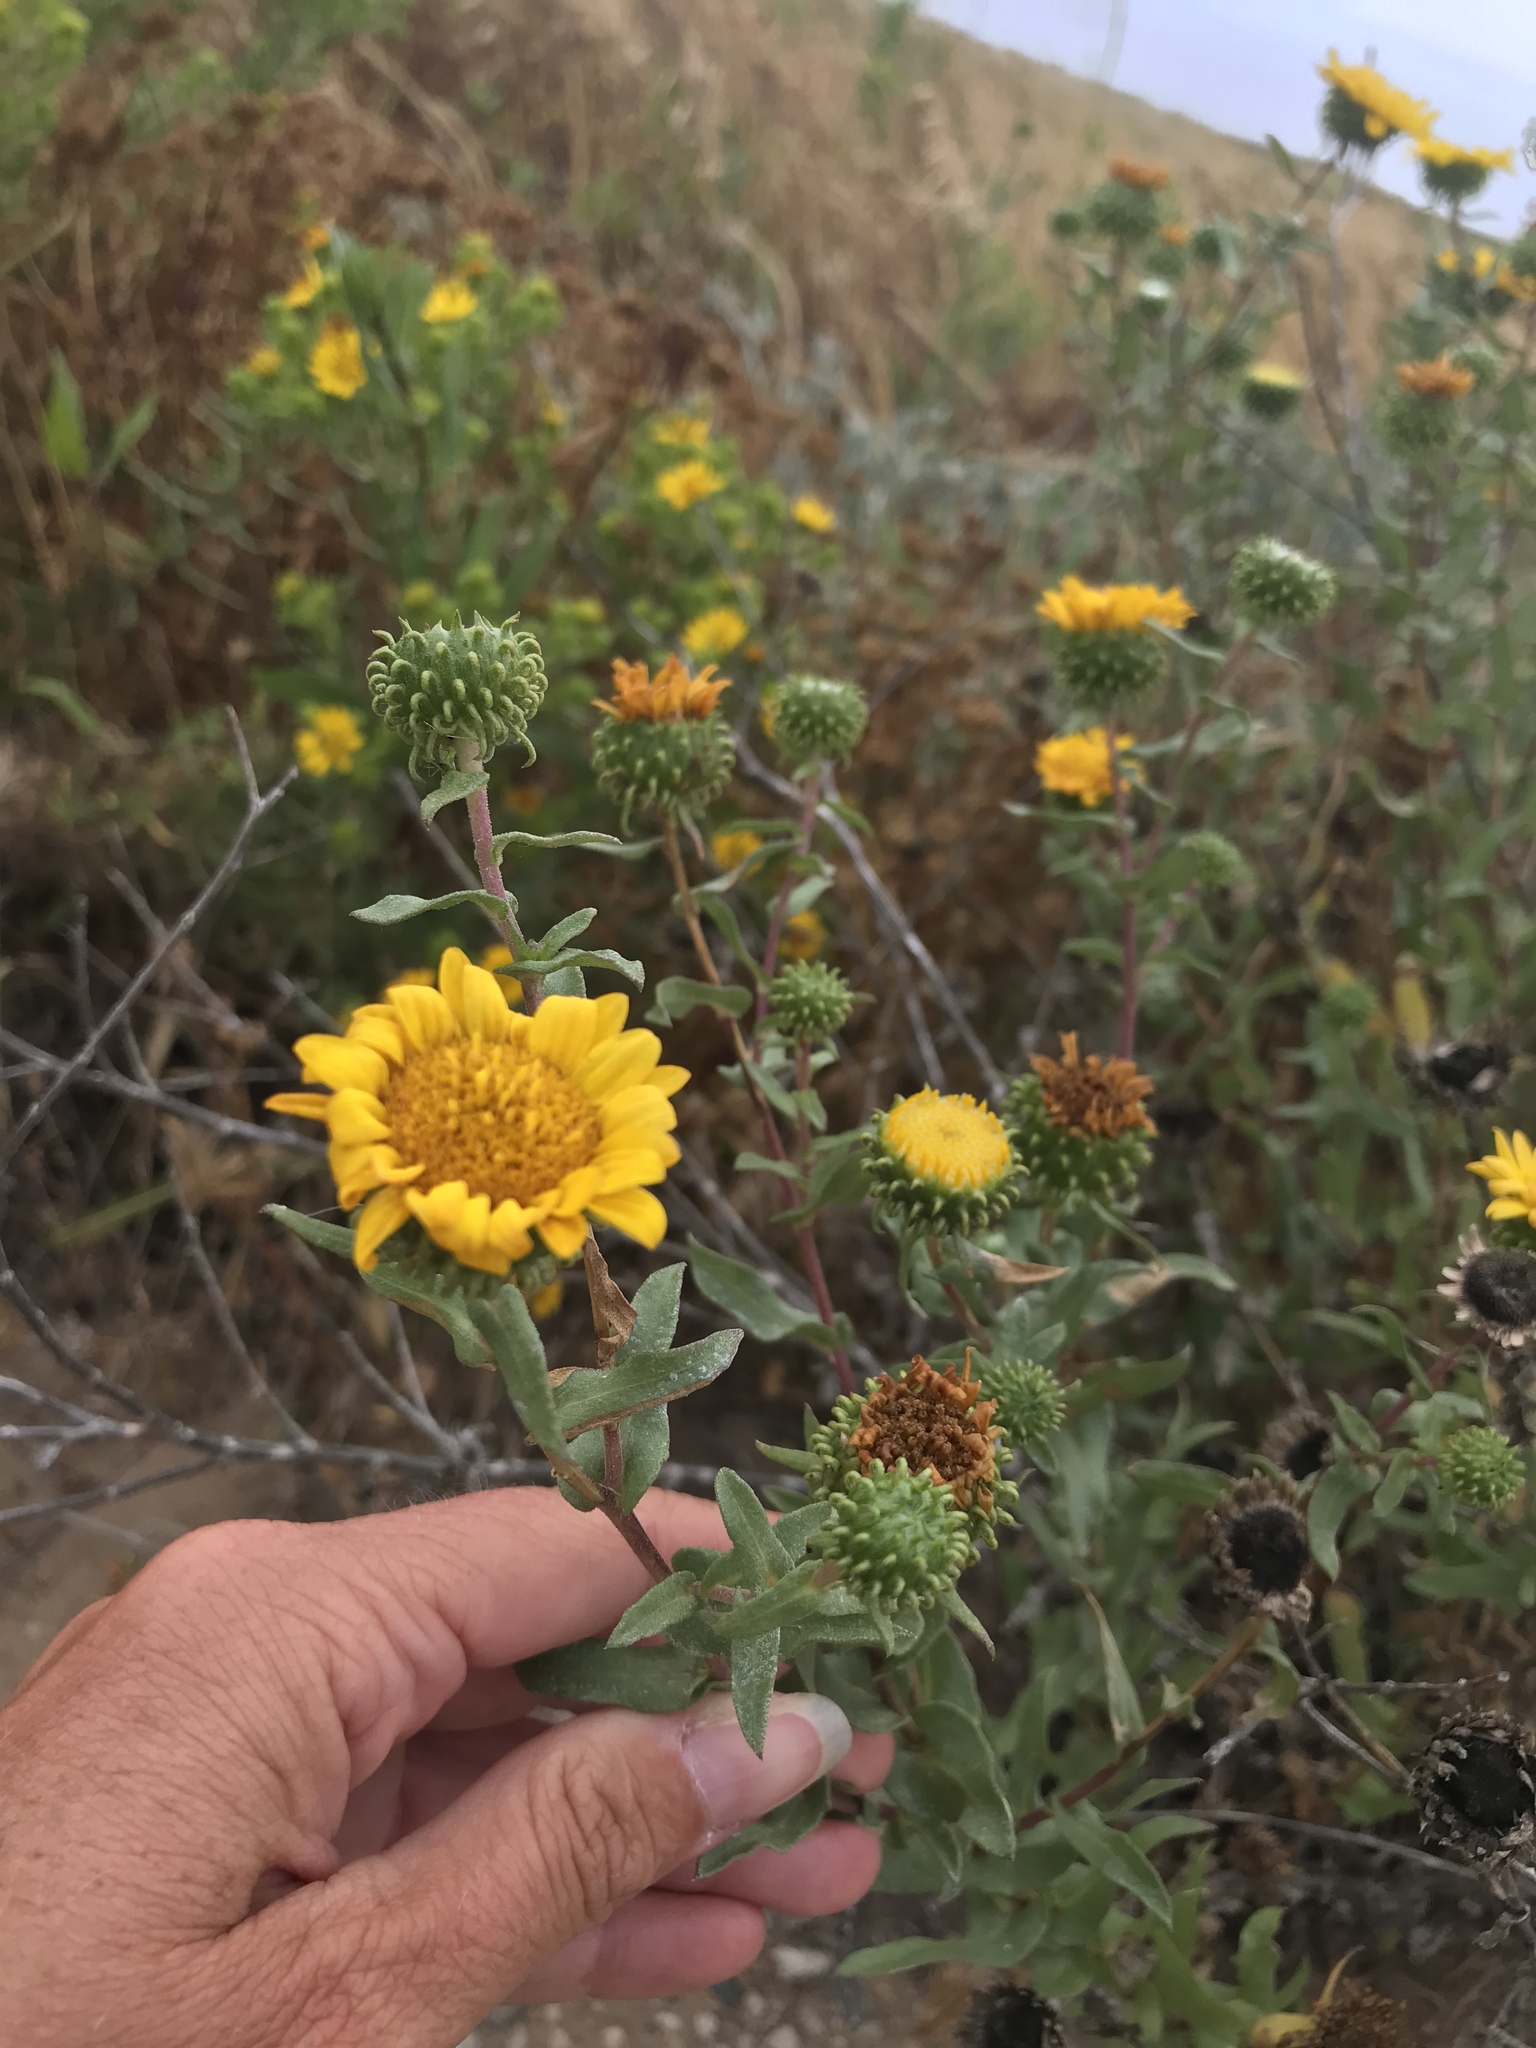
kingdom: Plantae
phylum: Tracheophyta
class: Magnoliopsida
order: Asterales
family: Asteraceae
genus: Grindelia
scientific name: Grindelia hirsutula
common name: Hairy gumweed
